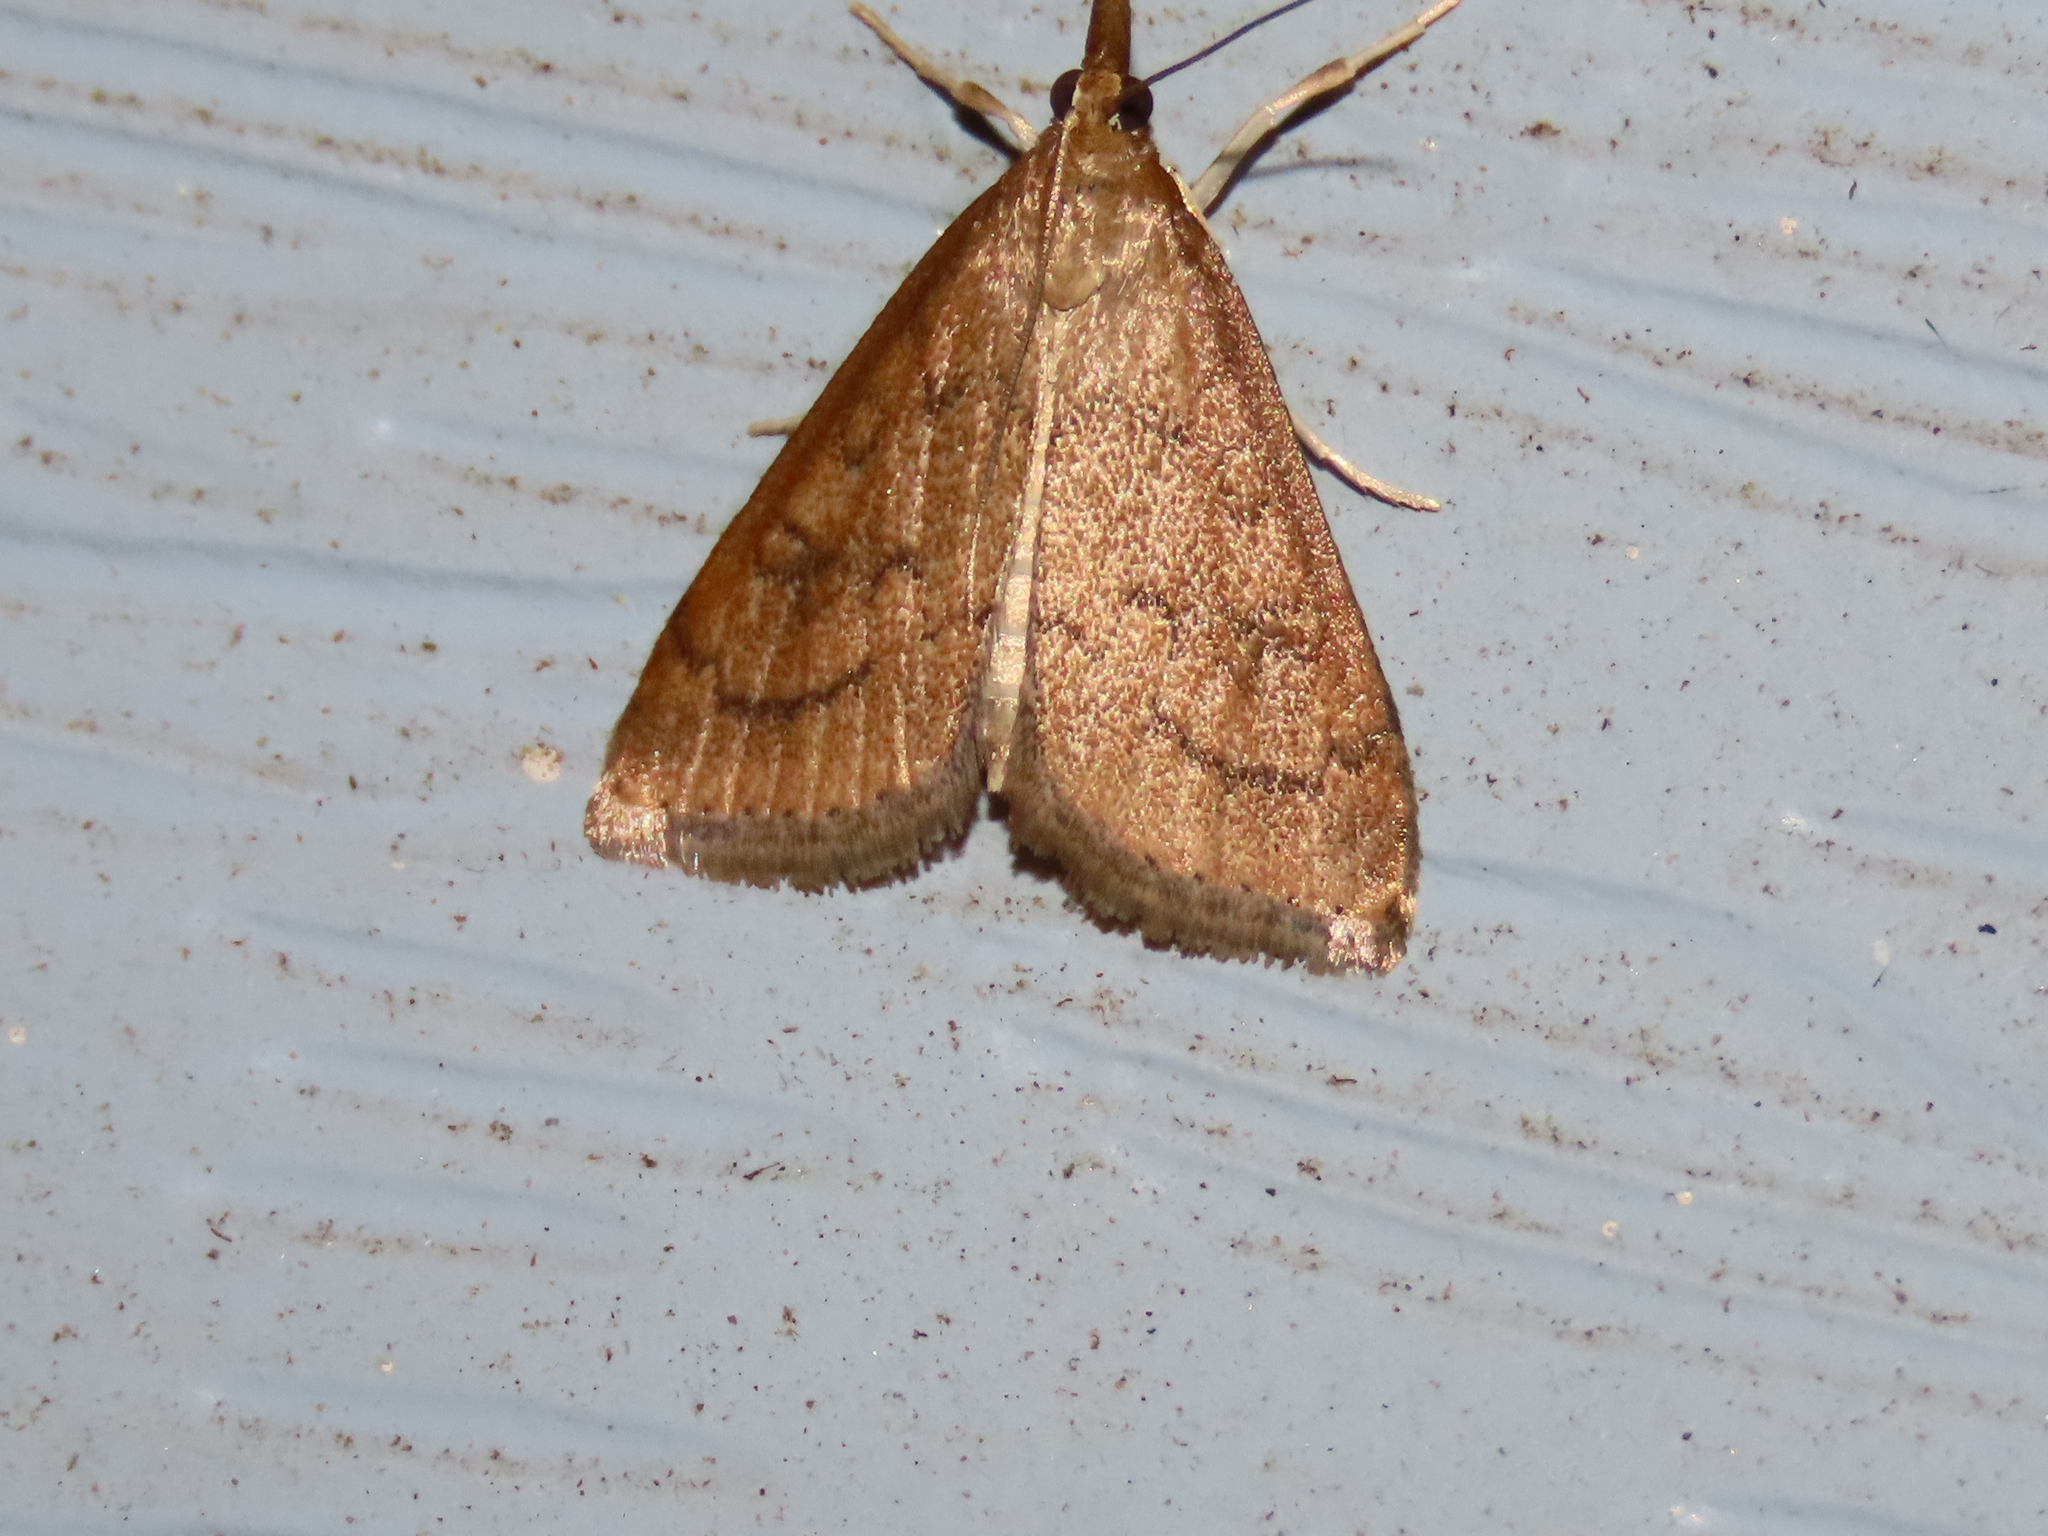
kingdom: Animalia
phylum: Arthropoda
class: Insecta
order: Lepidoptera
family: Crambidae
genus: Udea
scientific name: Udea rubigalis
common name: Celery leaftier moth
